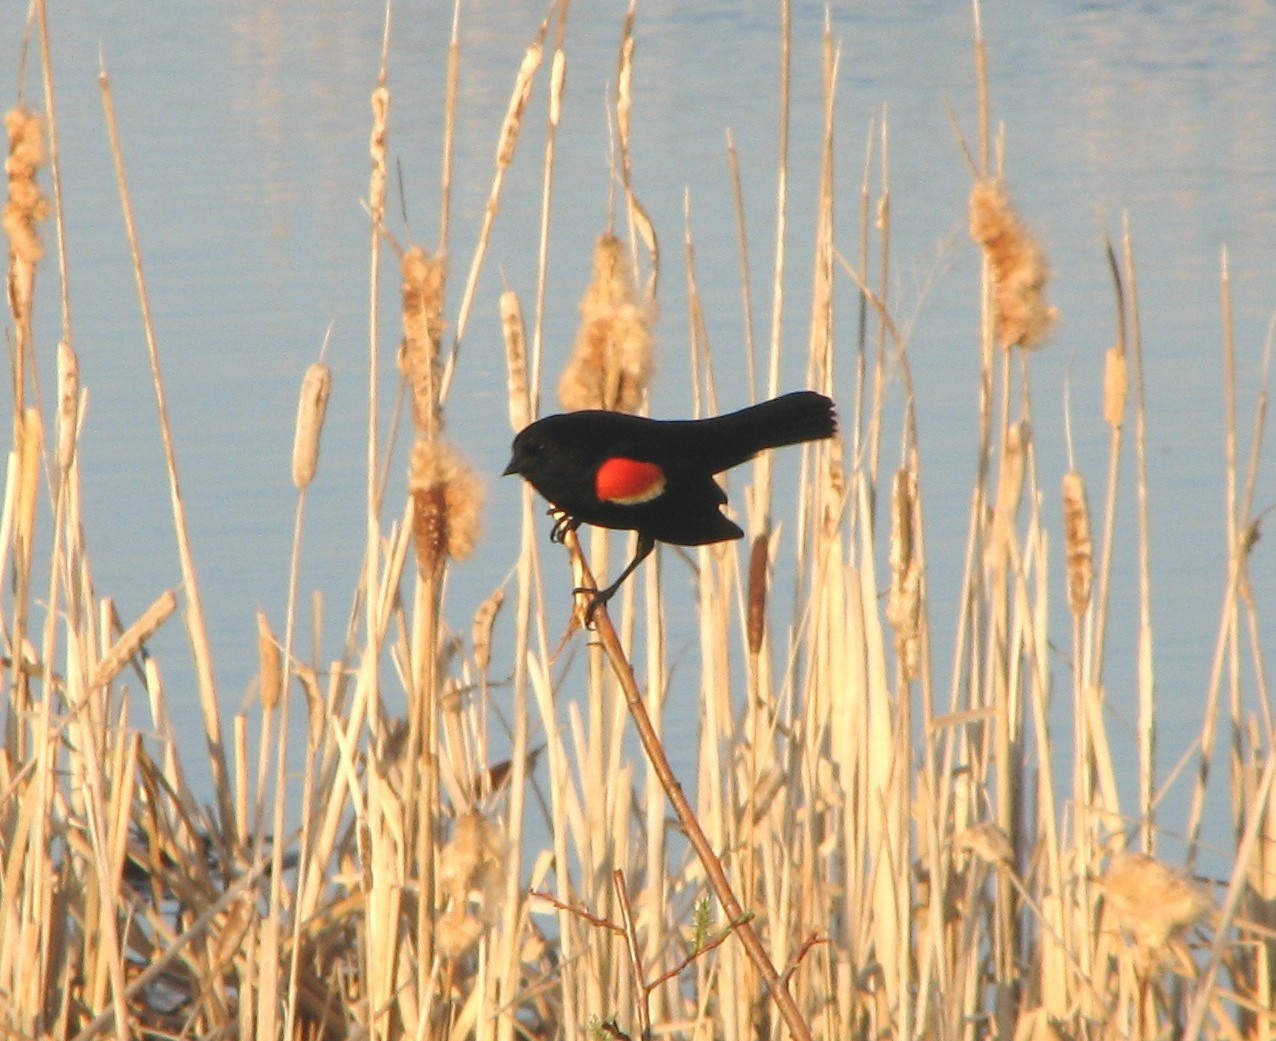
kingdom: Animalia
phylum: Chordata
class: Aves
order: Passeriformes
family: Icteridae
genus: Agelaius
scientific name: Agelaius phoeniceus
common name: Red-winged blackbird
